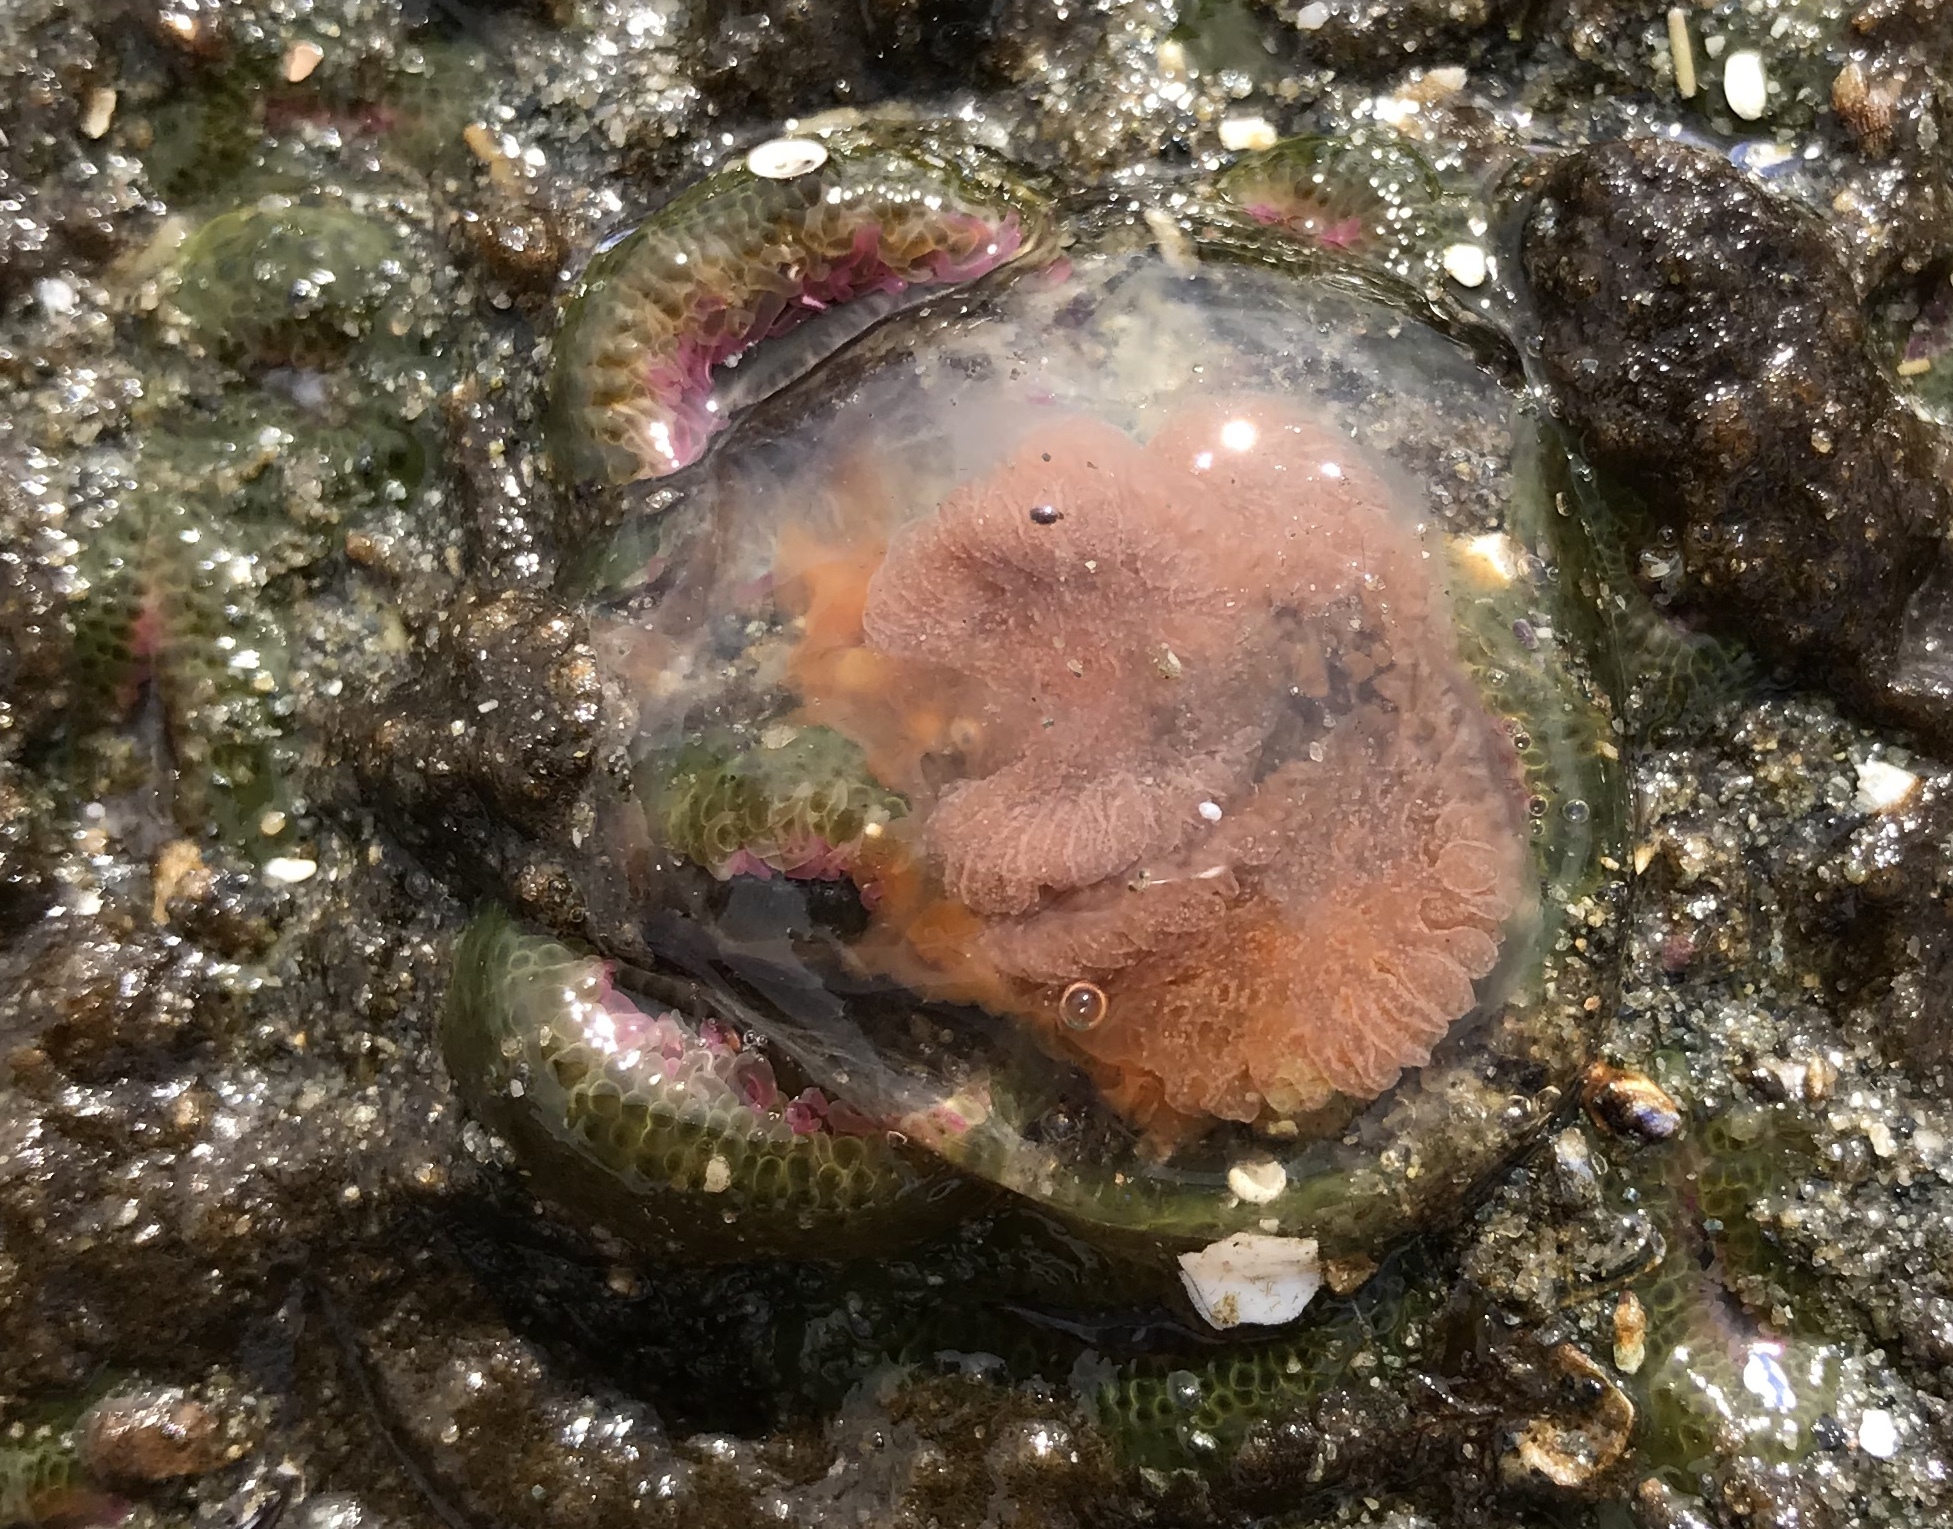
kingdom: Animalia
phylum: Cnidaria
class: Hydrozoa
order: Anthoathecata
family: Pandeidae
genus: Neoturris
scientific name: Neoturris breviconis
